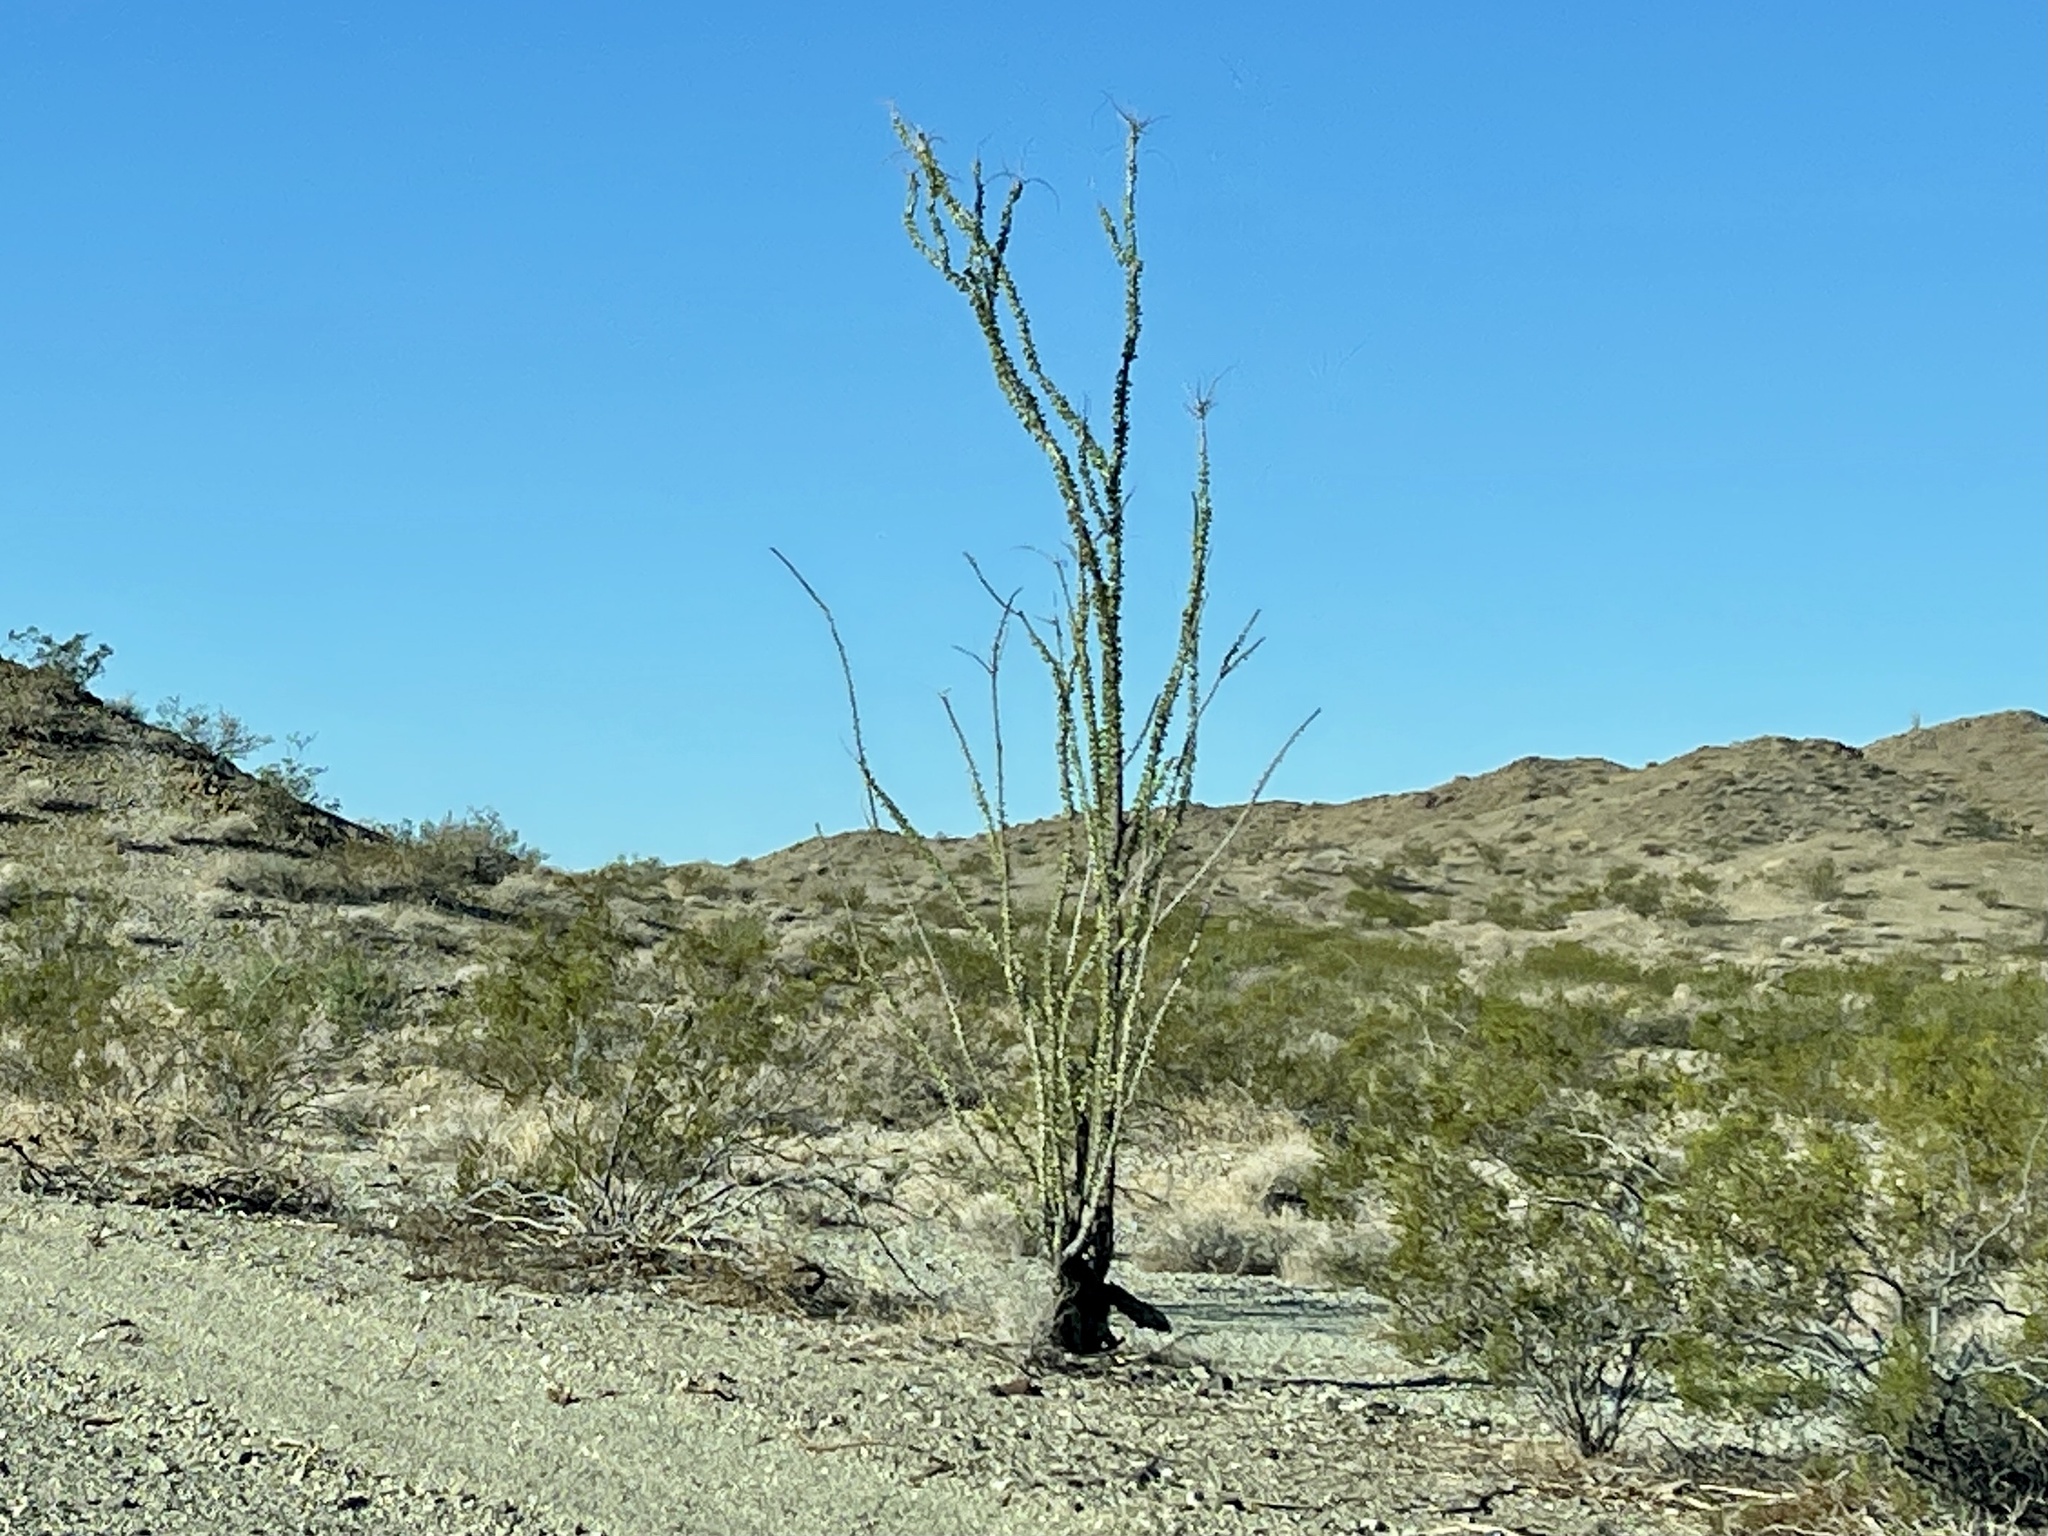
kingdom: Plantae
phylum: Tracheophyta
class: Magnoliopsida
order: Ericales
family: Fouquieriaceae
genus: Fouquieria
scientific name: Fouquieria splendens
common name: Vine-cactus
